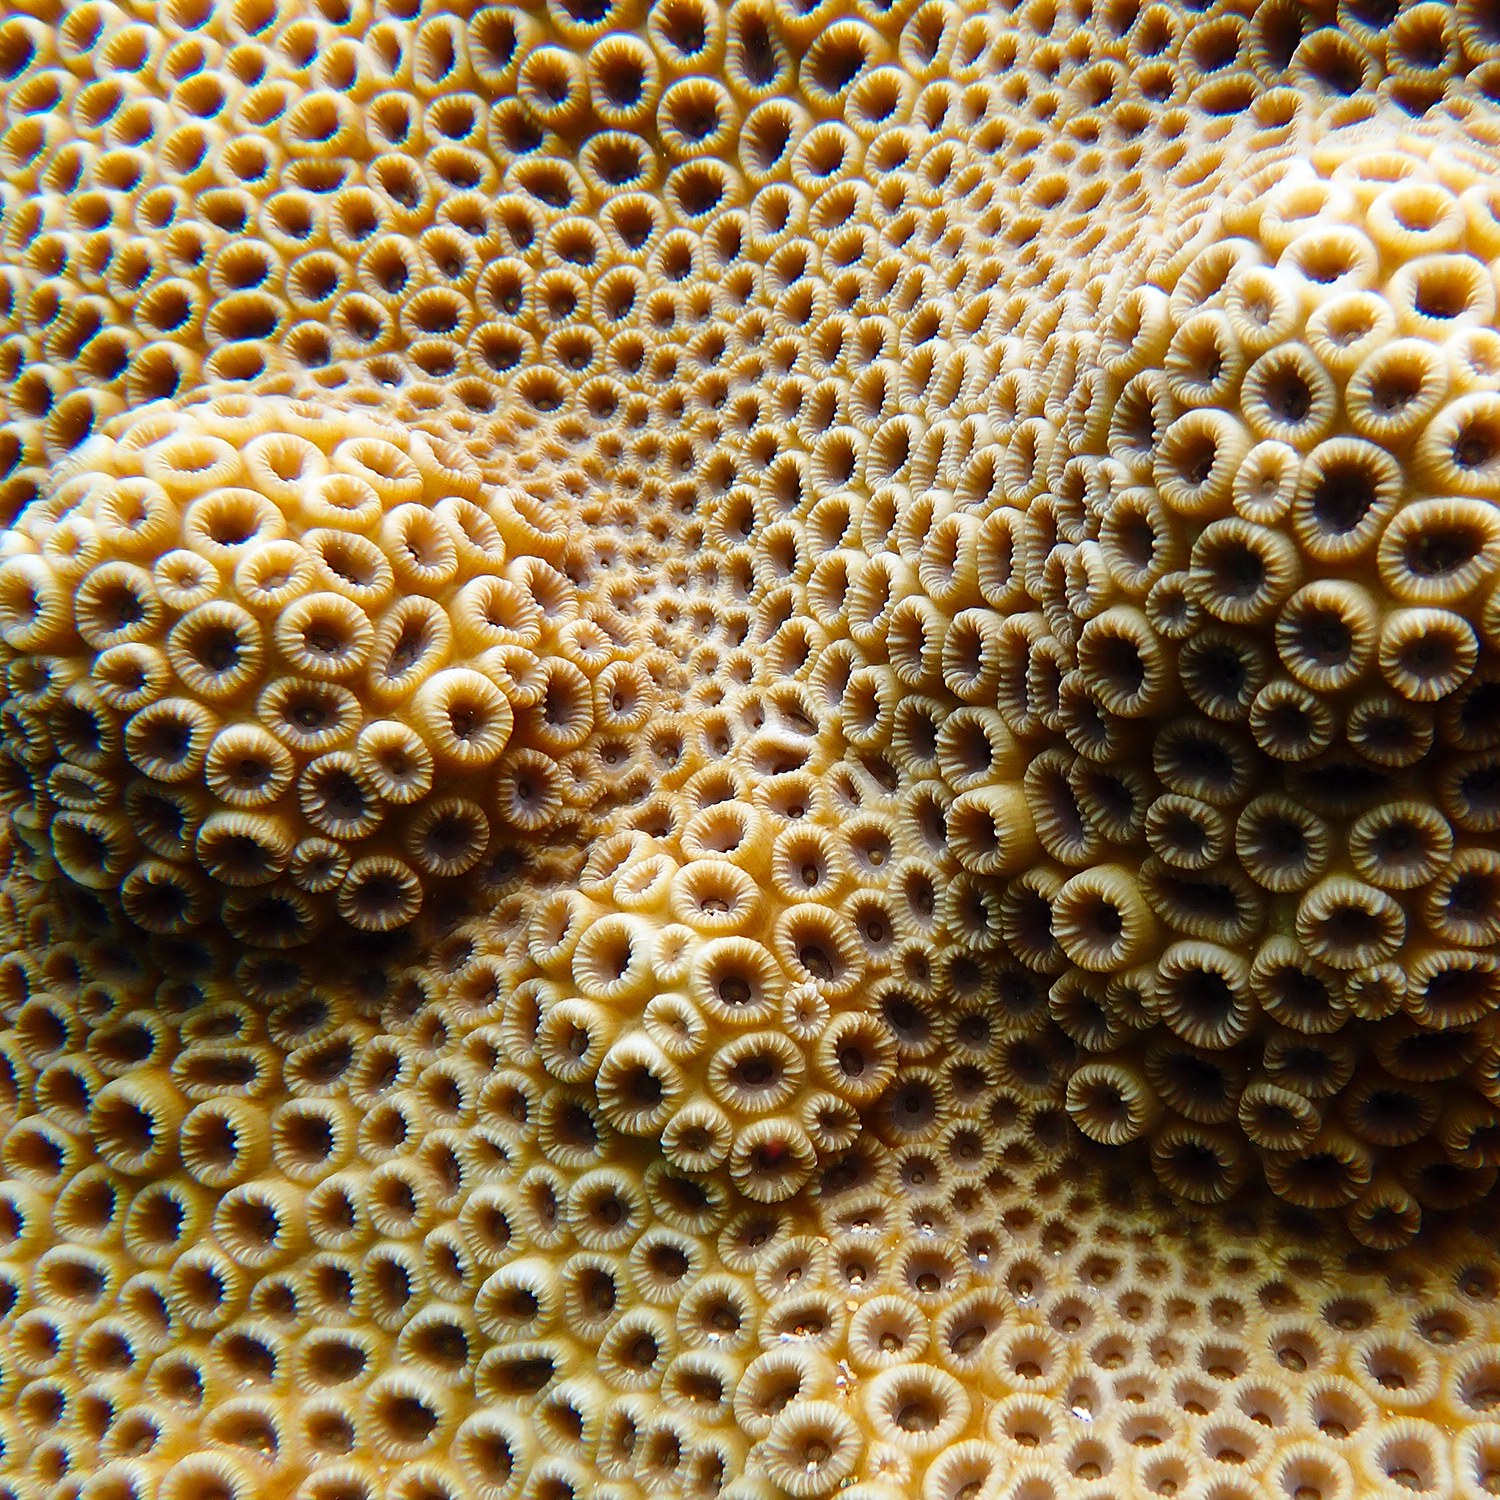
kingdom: Animalia
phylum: Cnidaria
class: Anthozoa
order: Scleractinia
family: Merulinidae
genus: Astrea
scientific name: Astrea curta
